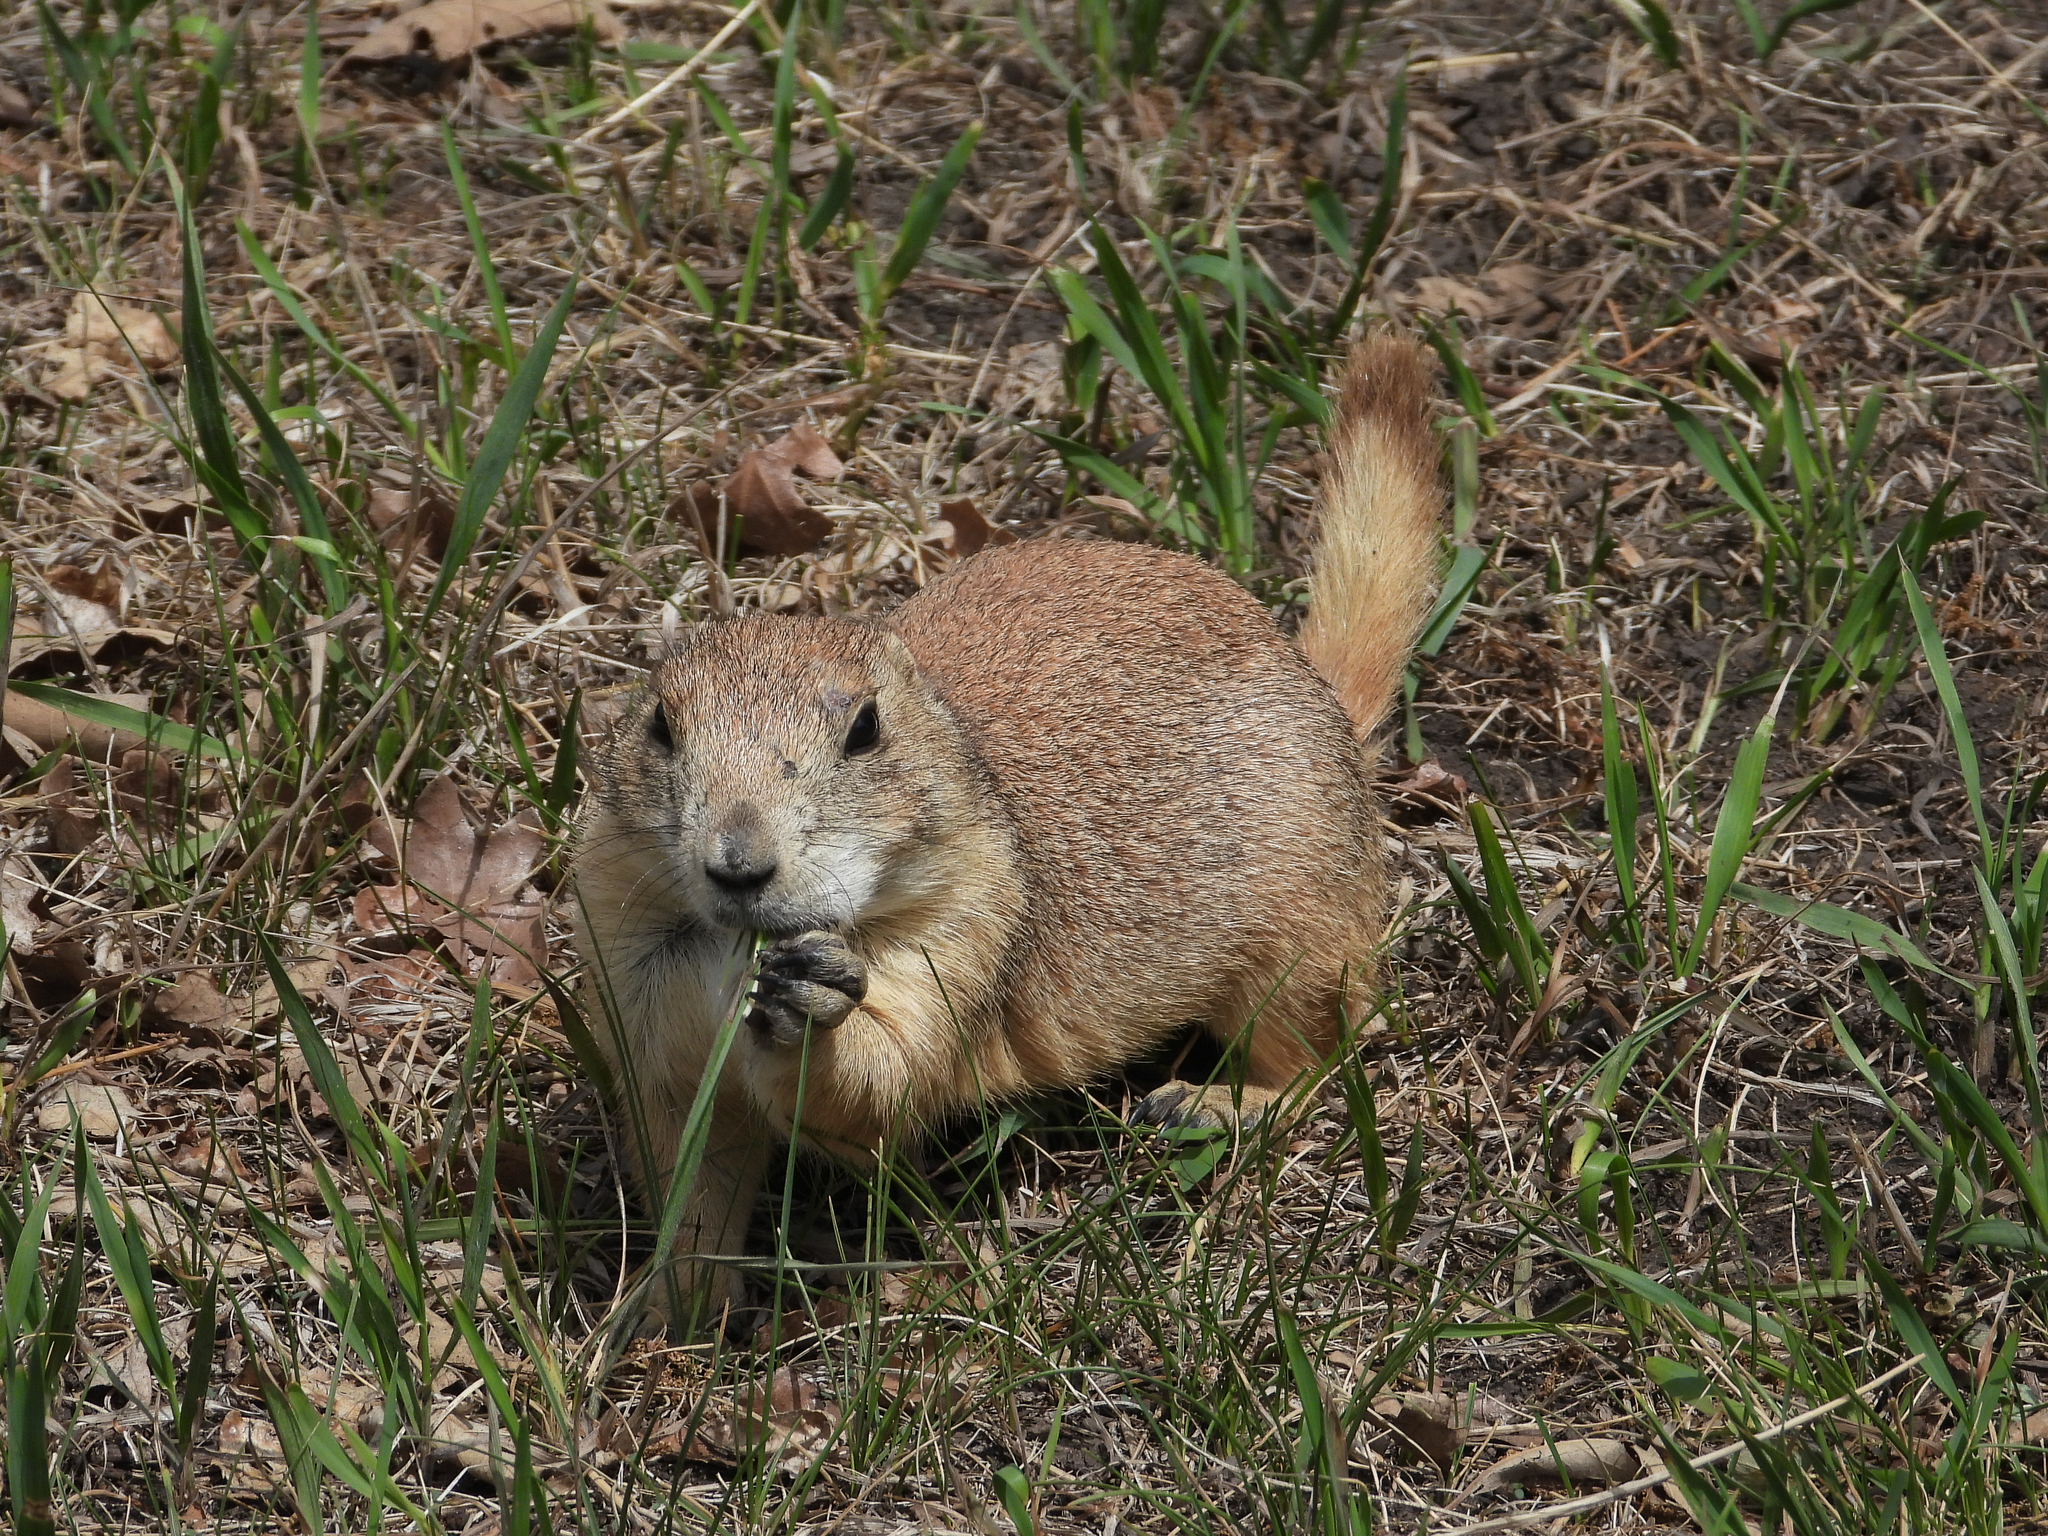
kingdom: Animalia
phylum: Chordata
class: Mammalia
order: Rodentia
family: Sciuridae
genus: Cynomys
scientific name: Cynomys ludovicianus
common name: Black-tailed prairie dog
